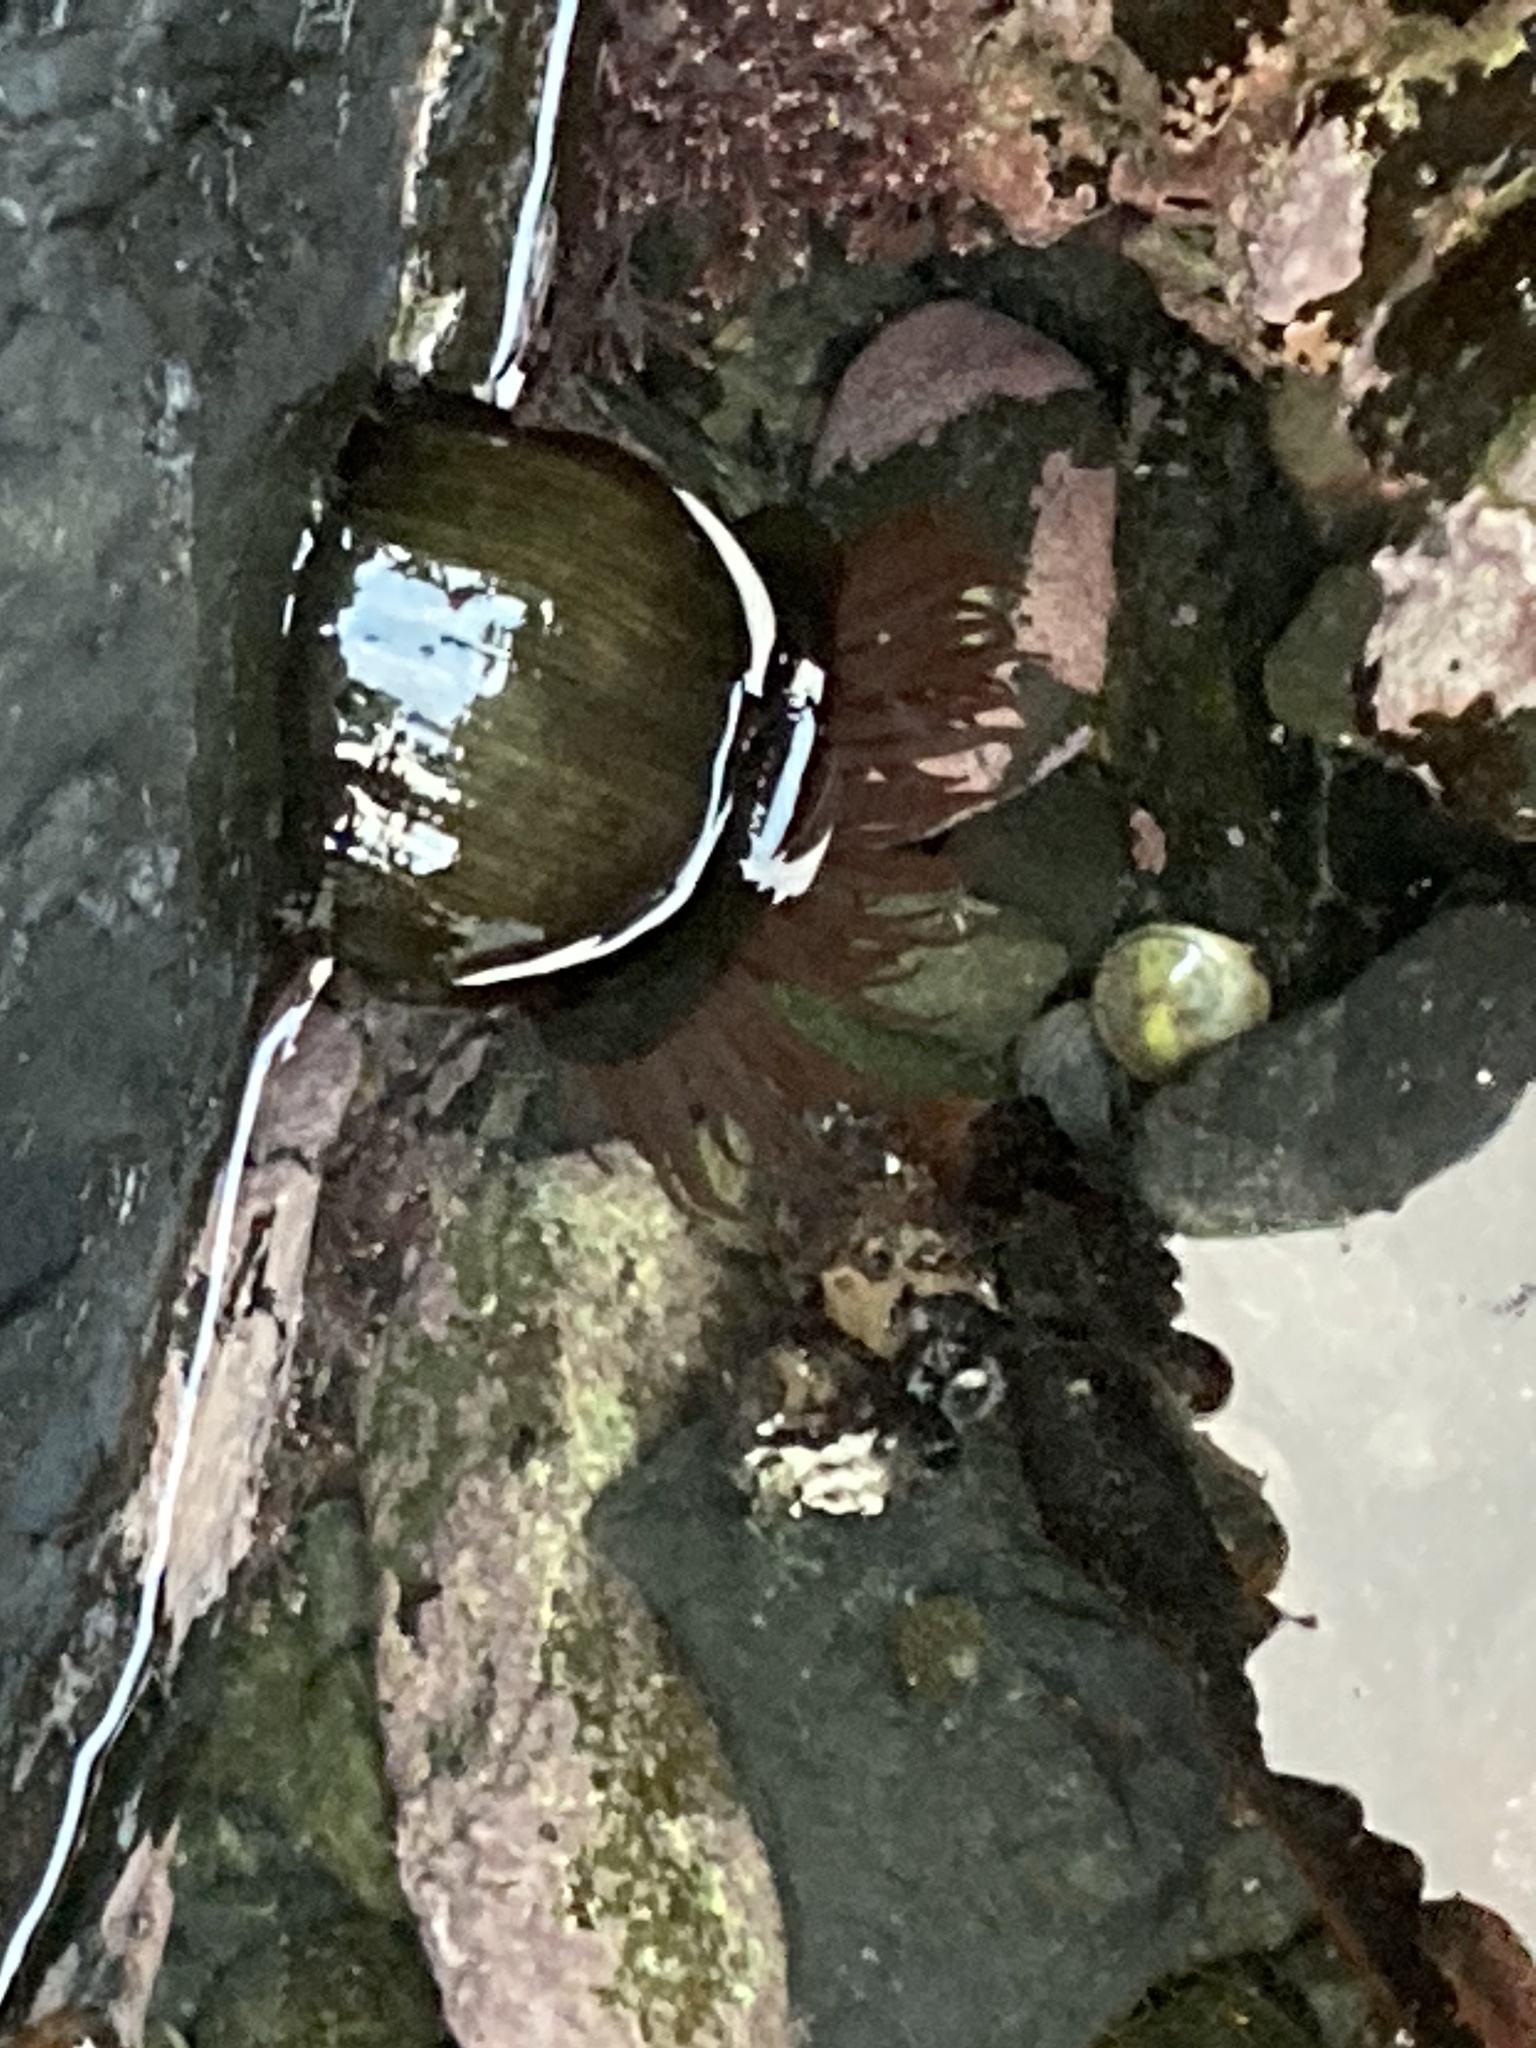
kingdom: Animalia
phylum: Cnidaria
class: Anthozoa
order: Actiniaria
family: Actiniidae
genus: Actinia
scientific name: Actinia tenebrosa
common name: Waratah anemone
